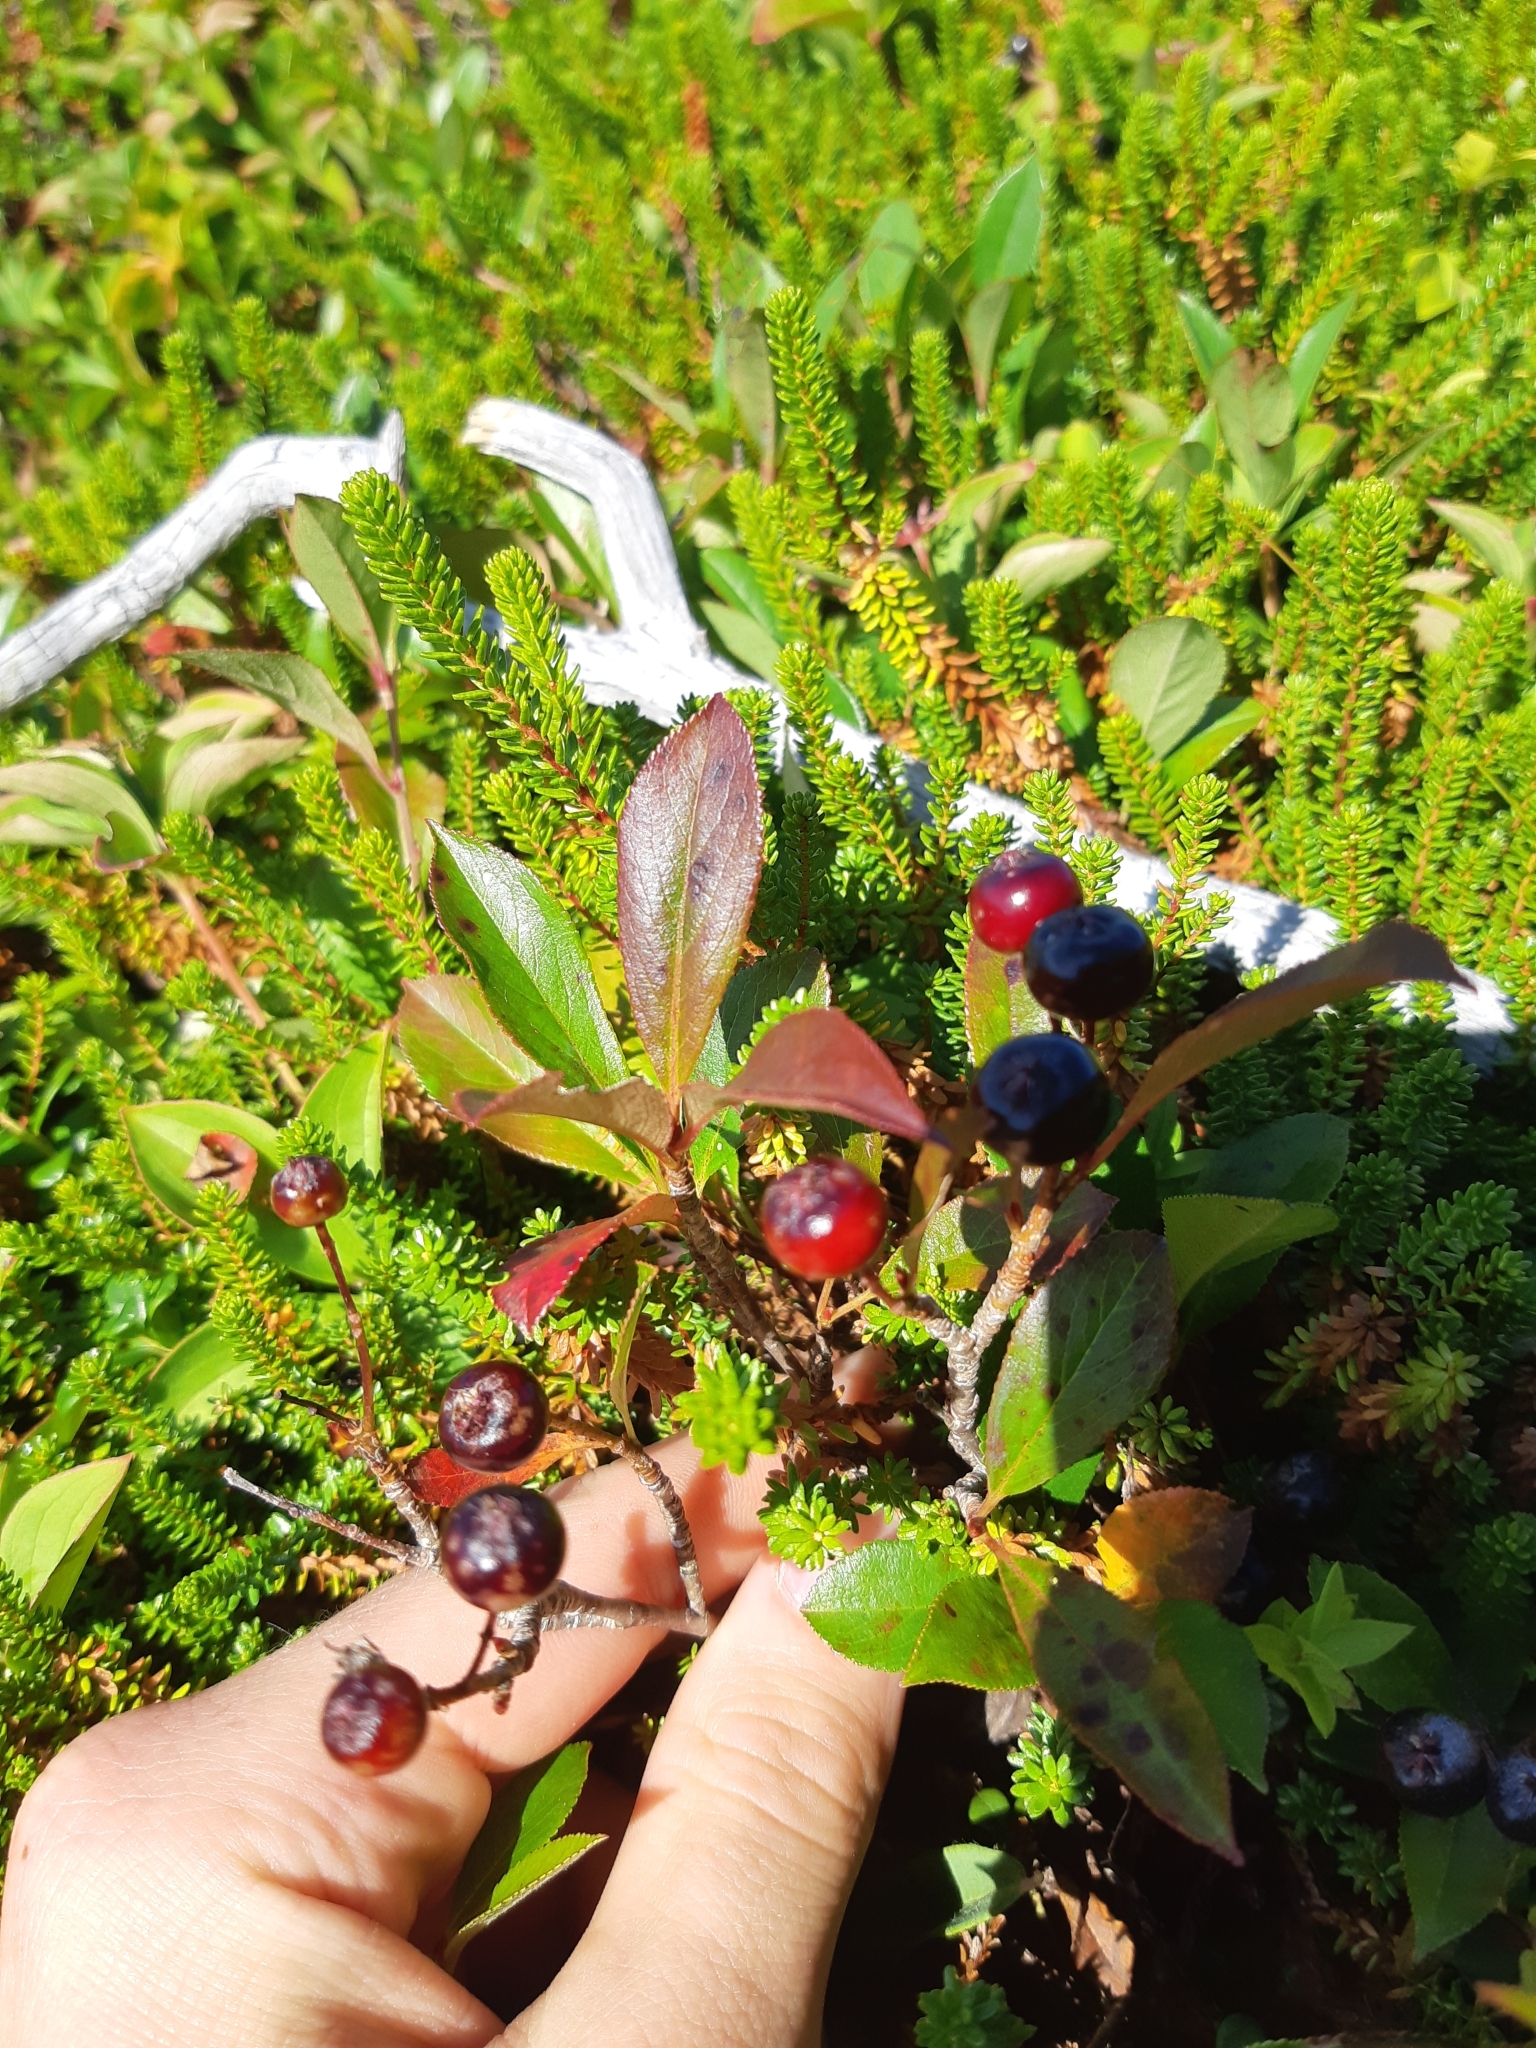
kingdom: Plantae
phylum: Tracheophyta
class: Magnoliopsida
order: Rosales
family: Rosaceae
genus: Aronia
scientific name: Aronia melanocarpa
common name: Black chokeberry
